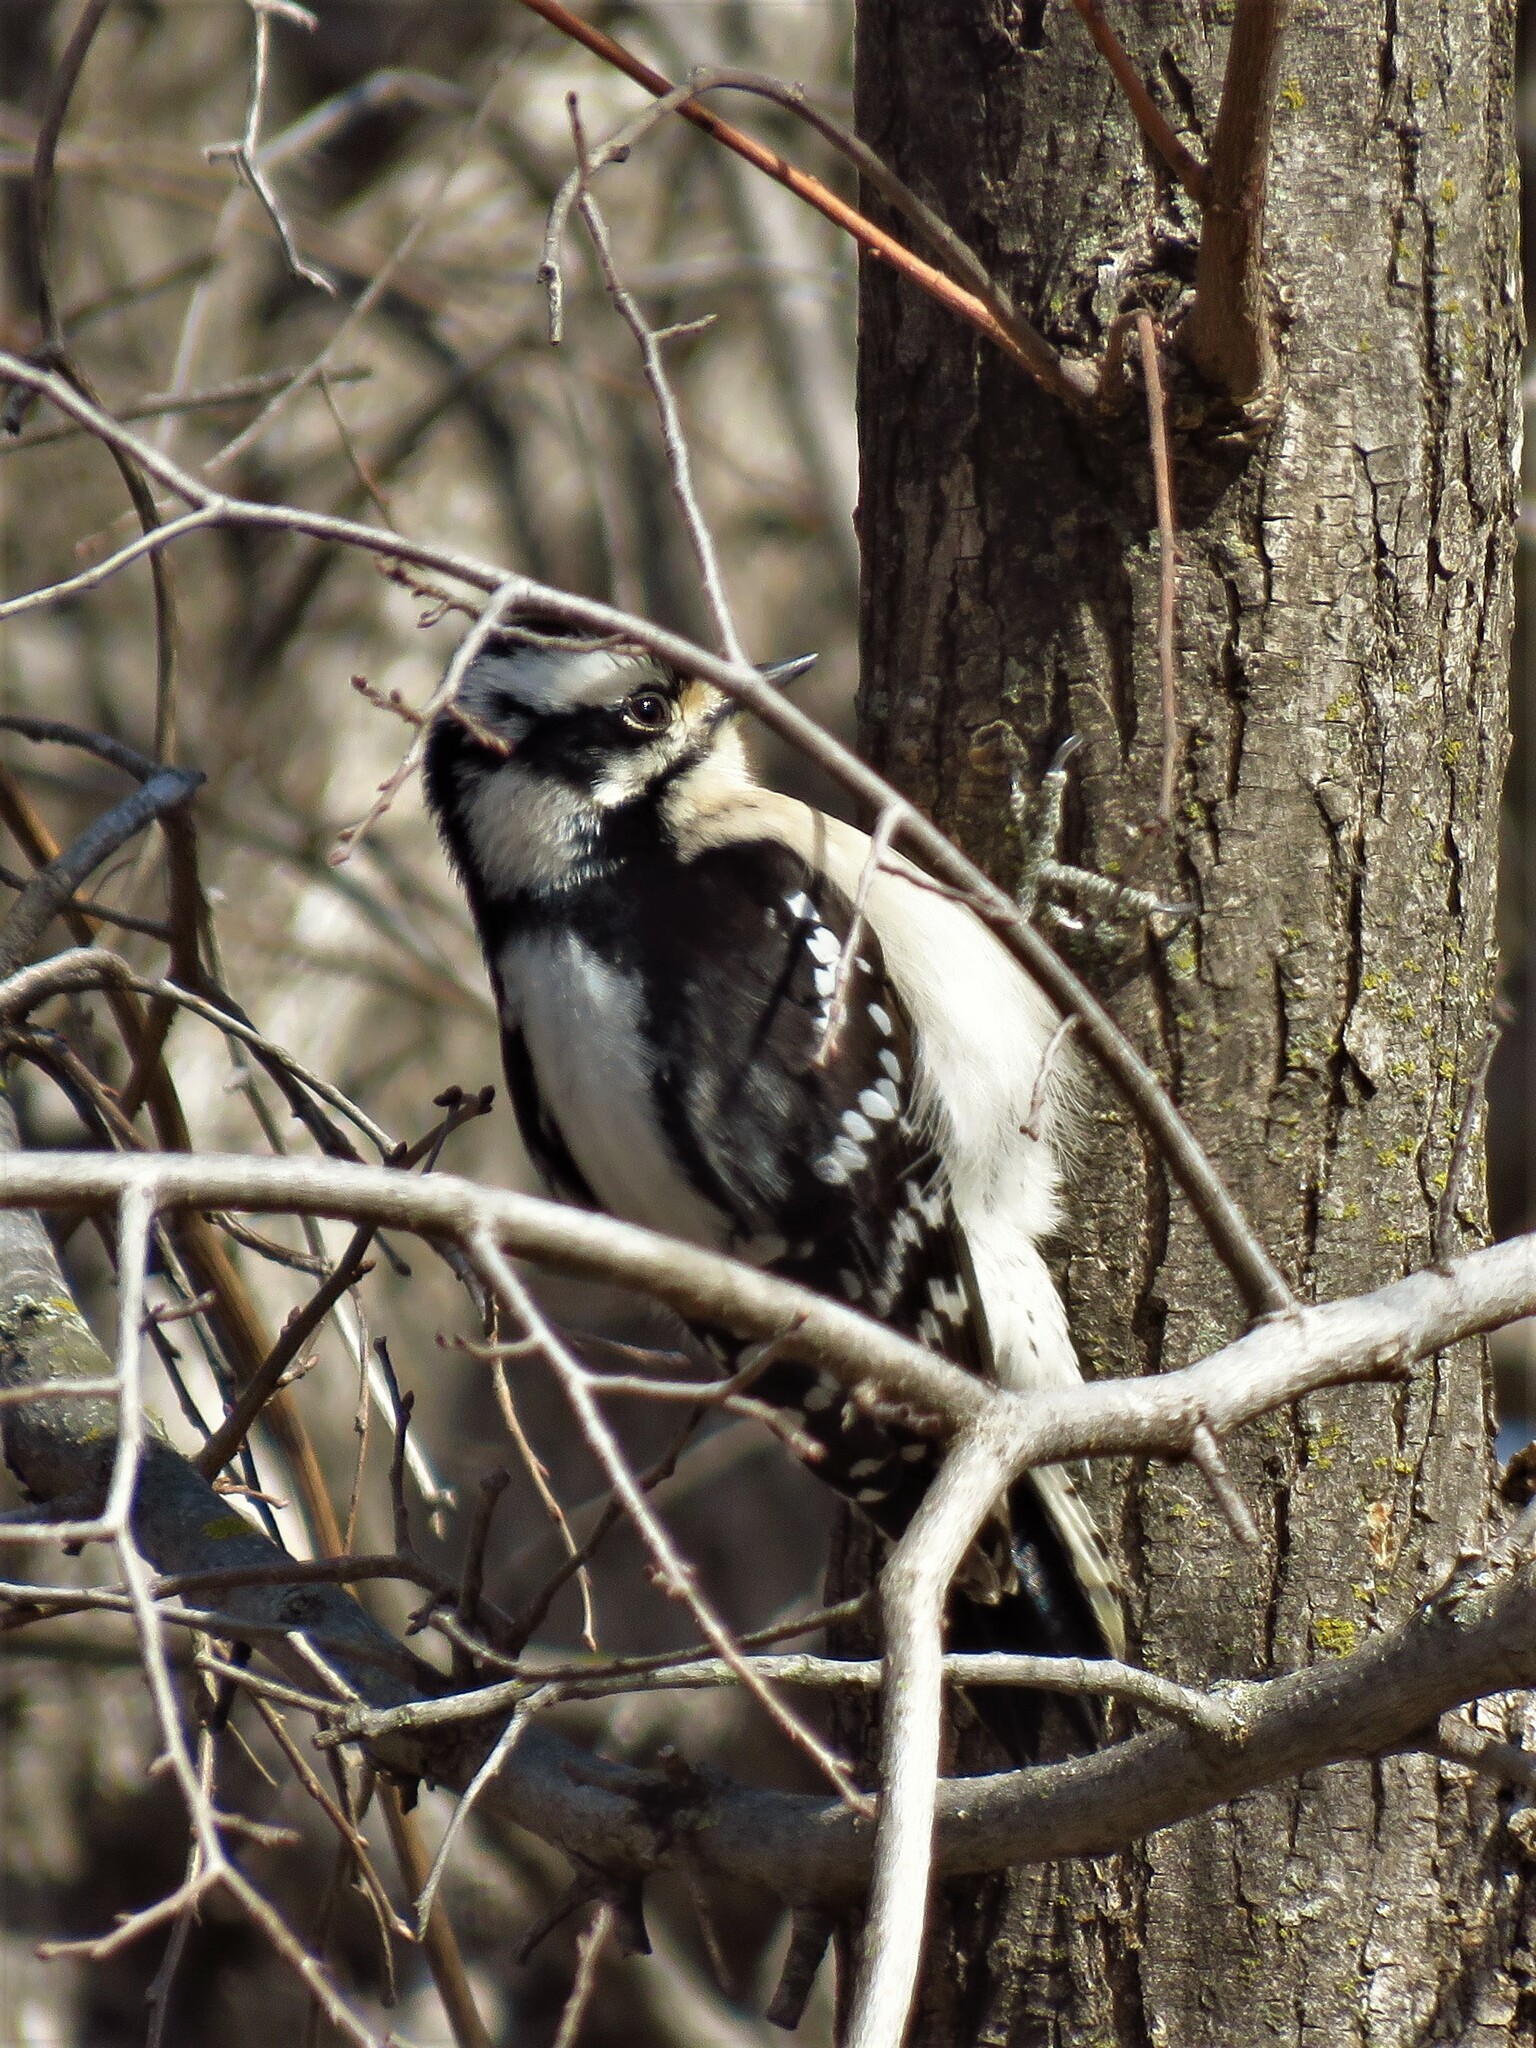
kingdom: Animalia
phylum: Chordata
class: Aves
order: Piciformes
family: Picidae
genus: Dryobates
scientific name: Dryobates pubescens
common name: Downy woodpecker
